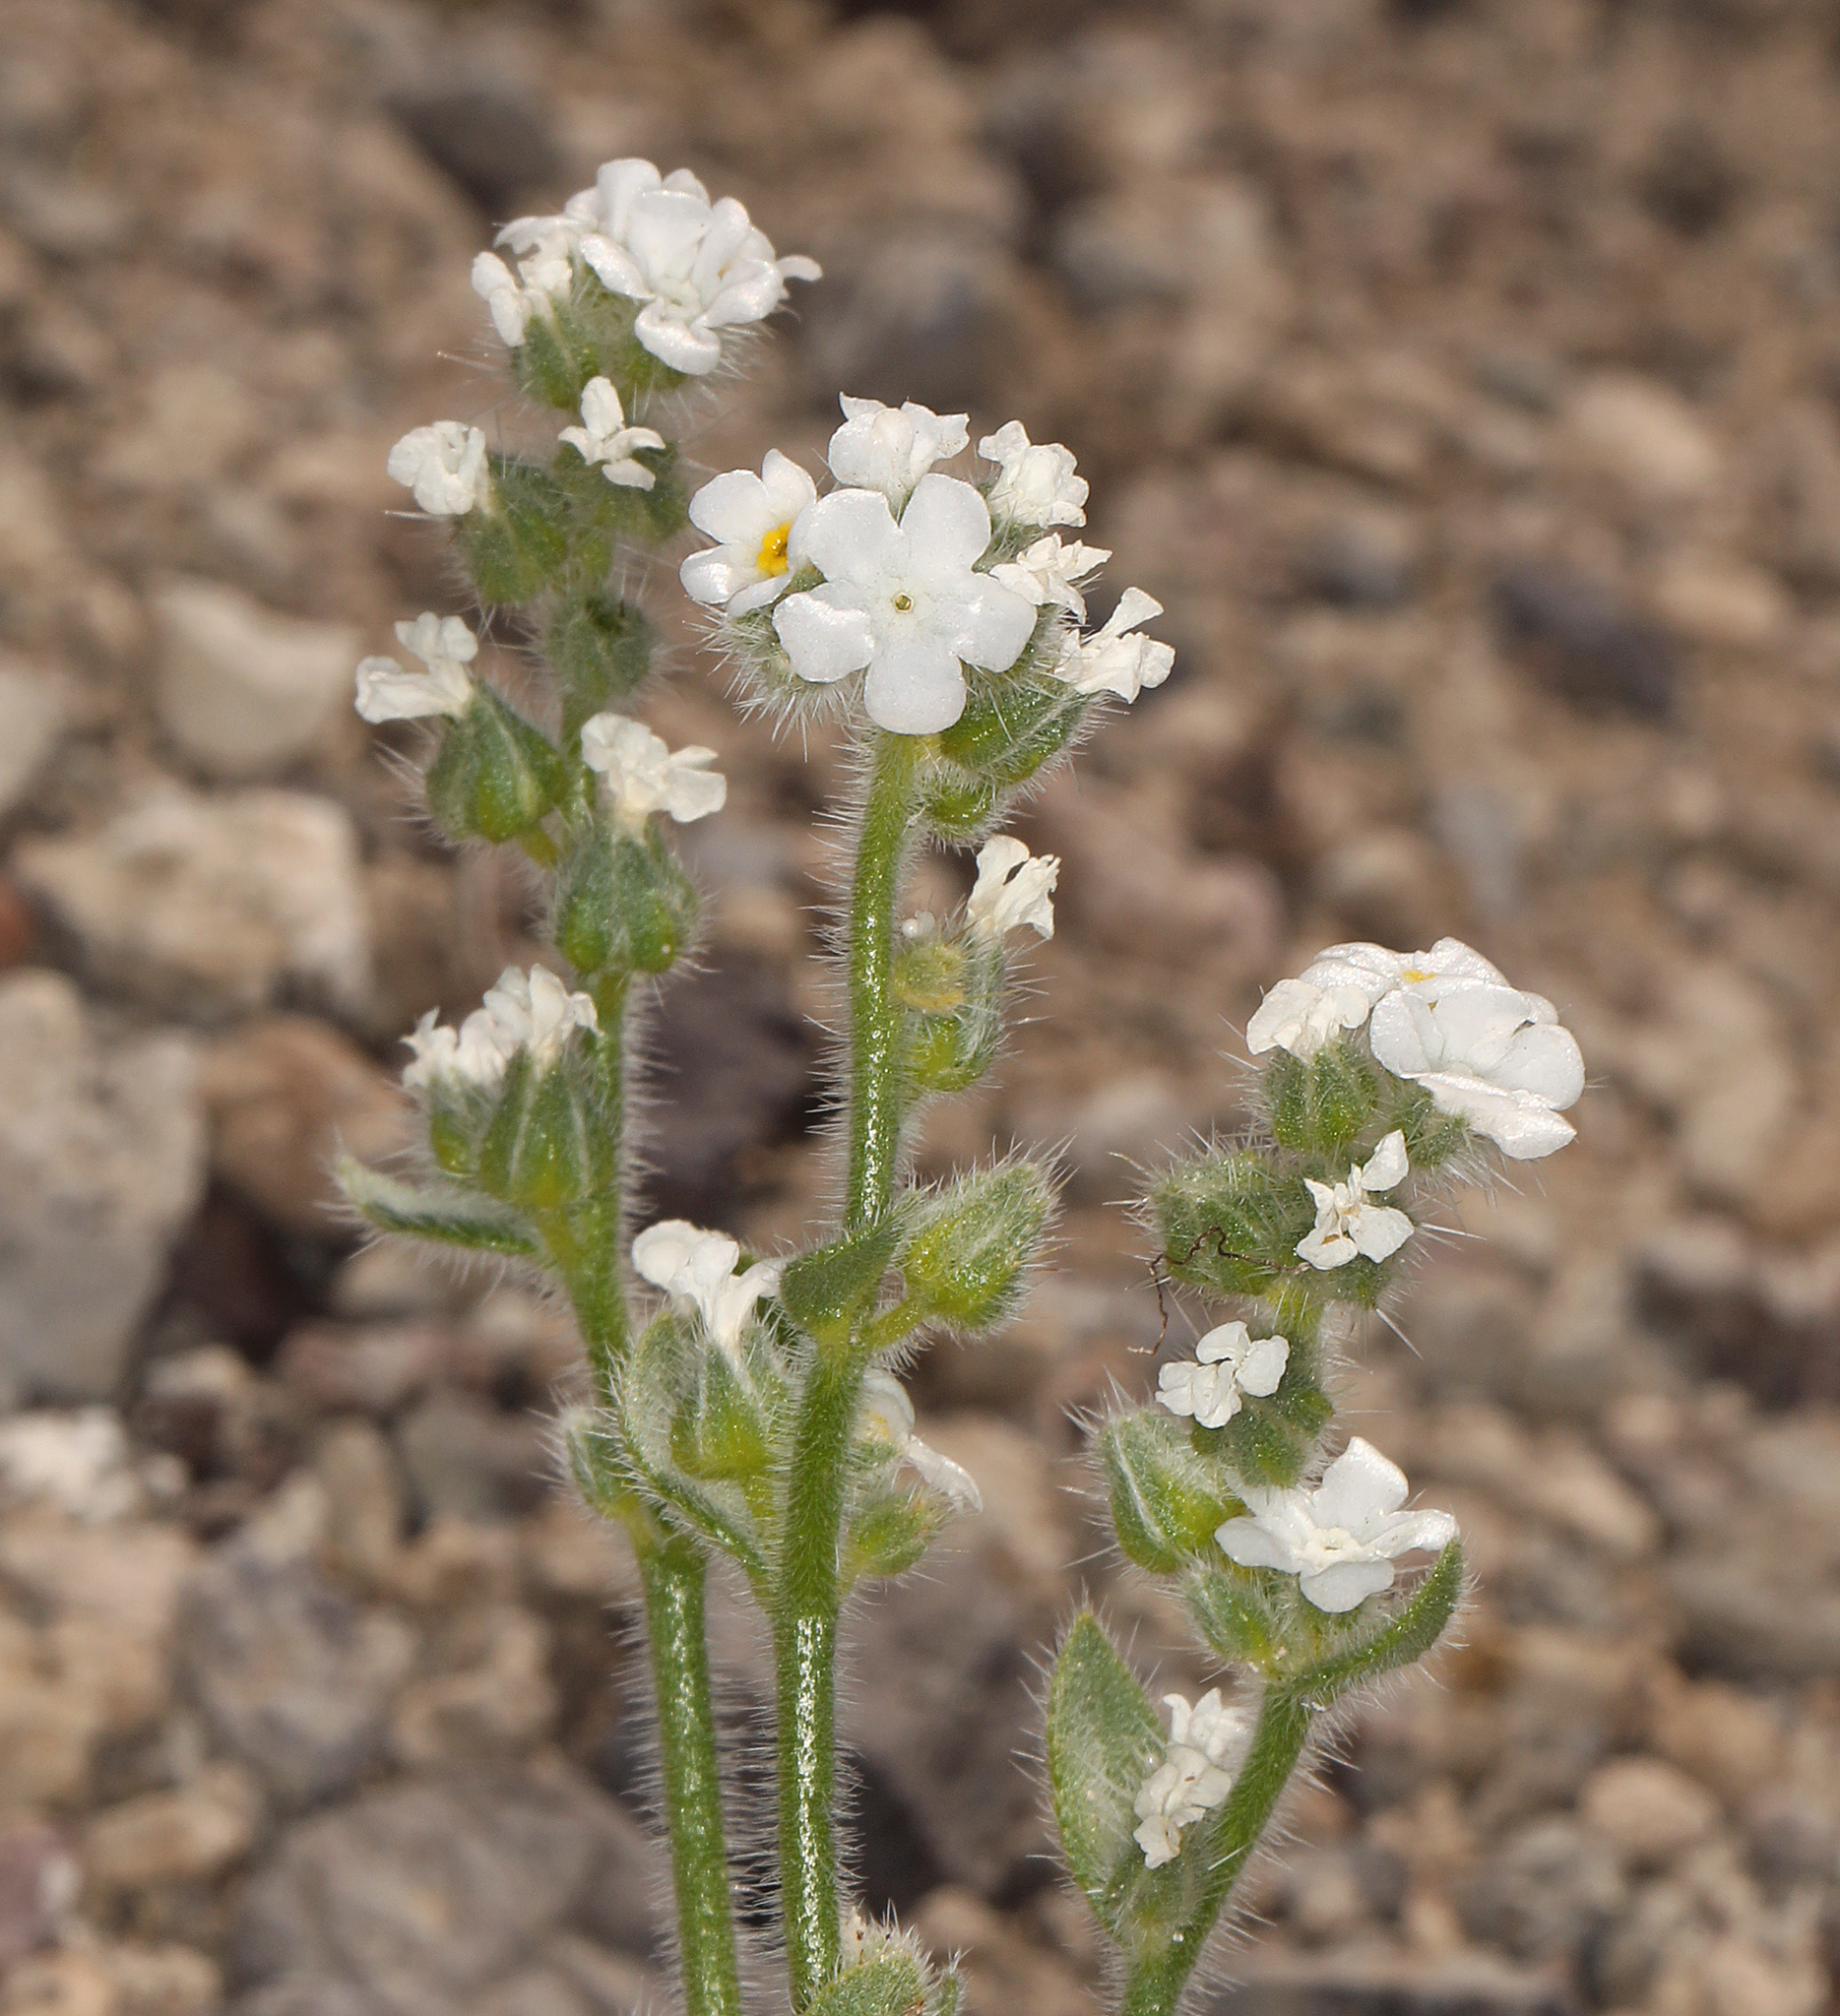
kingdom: Plantae
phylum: Tracheophyta
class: Magnoliopsida
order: Boraginales
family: Boraginaceae
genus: Amsinckiopsis
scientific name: Amsinckiopsis kingii
